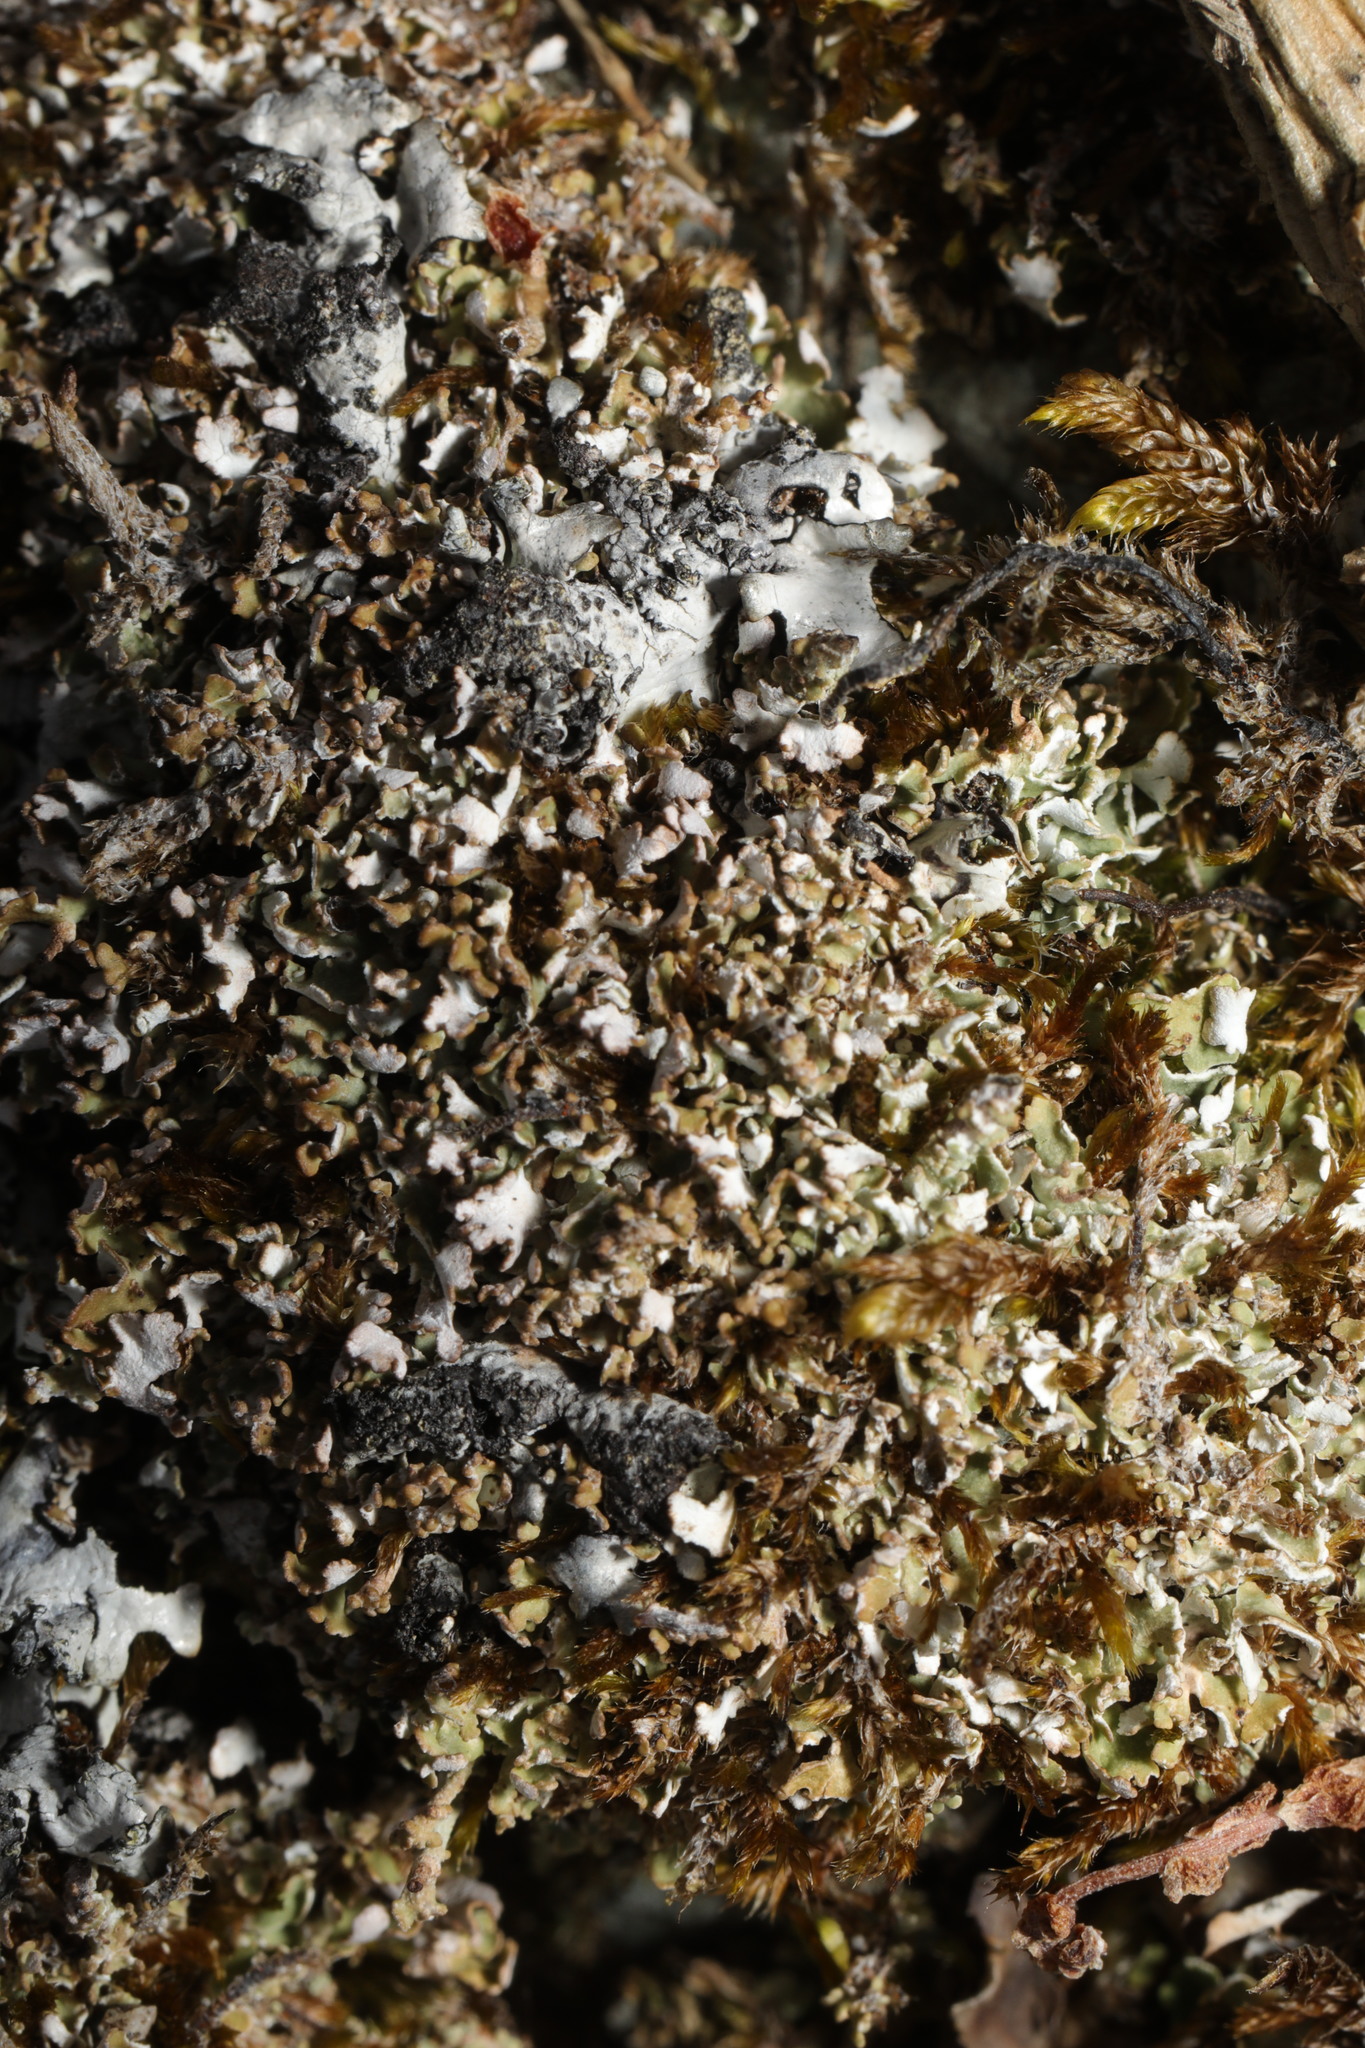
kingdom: Fungi
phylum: Ascomycota
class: Lecanoromycetes
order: Lecanorales
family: Cladoniaceae
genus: Cladonia
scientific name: Cladonia
